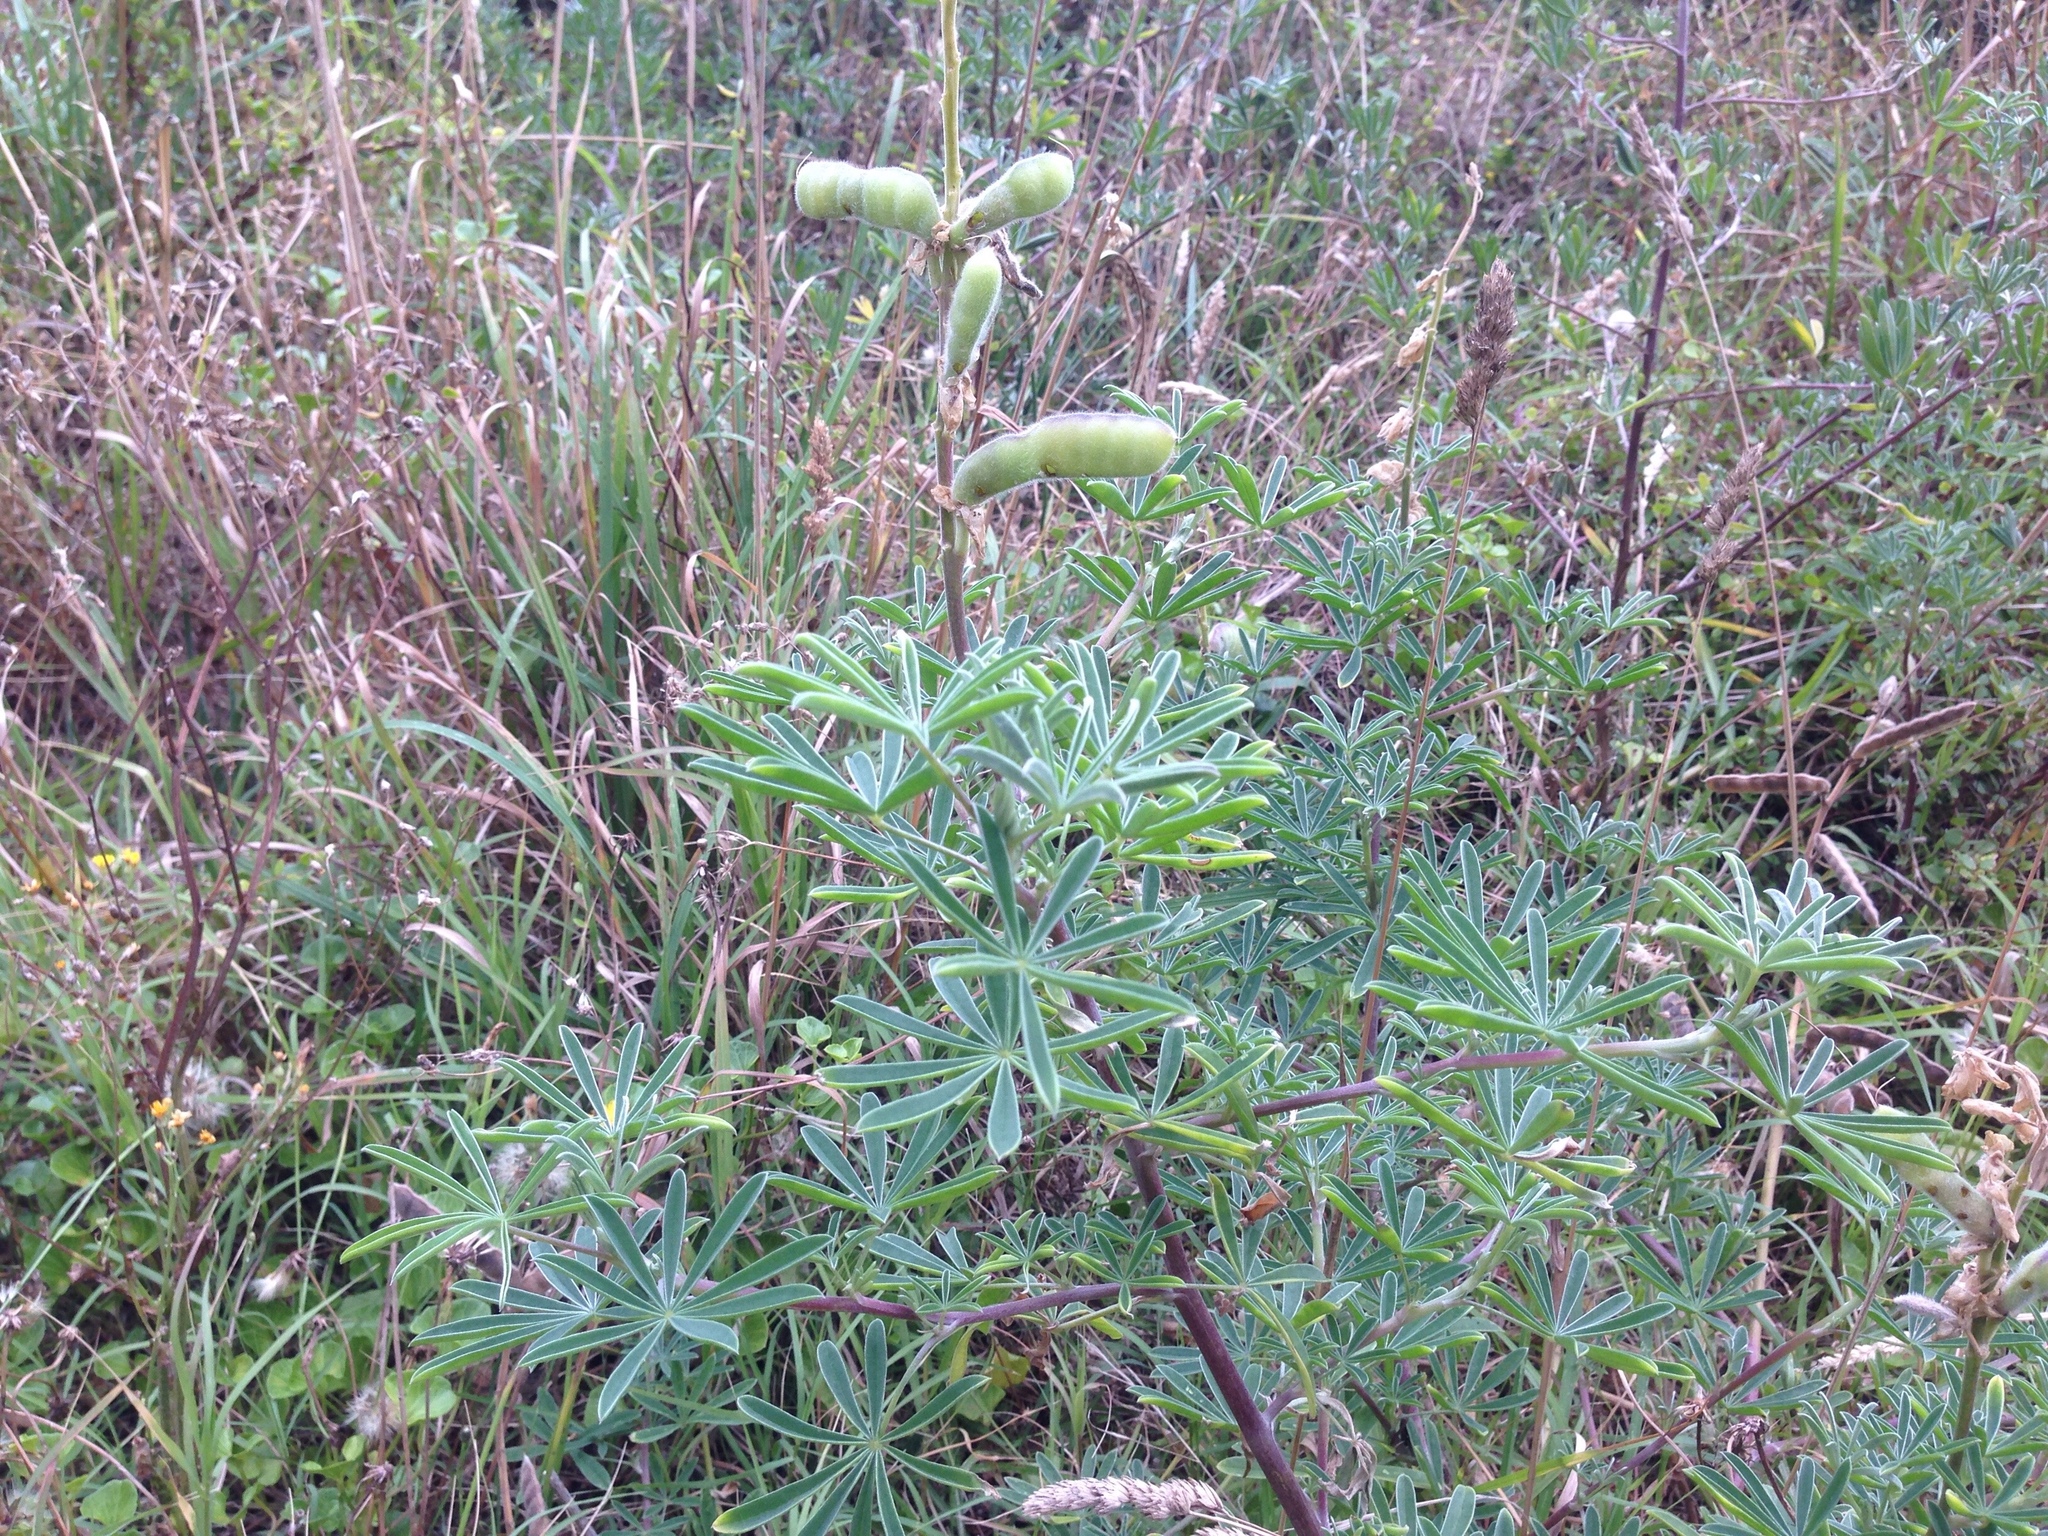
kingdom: Plantae
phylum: Tracheophyta
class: Magnoliopsida
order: Fabales
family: Fabaceae
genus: Lupinus
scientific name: Lupinus arboreus
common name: Yellow bush lupine
